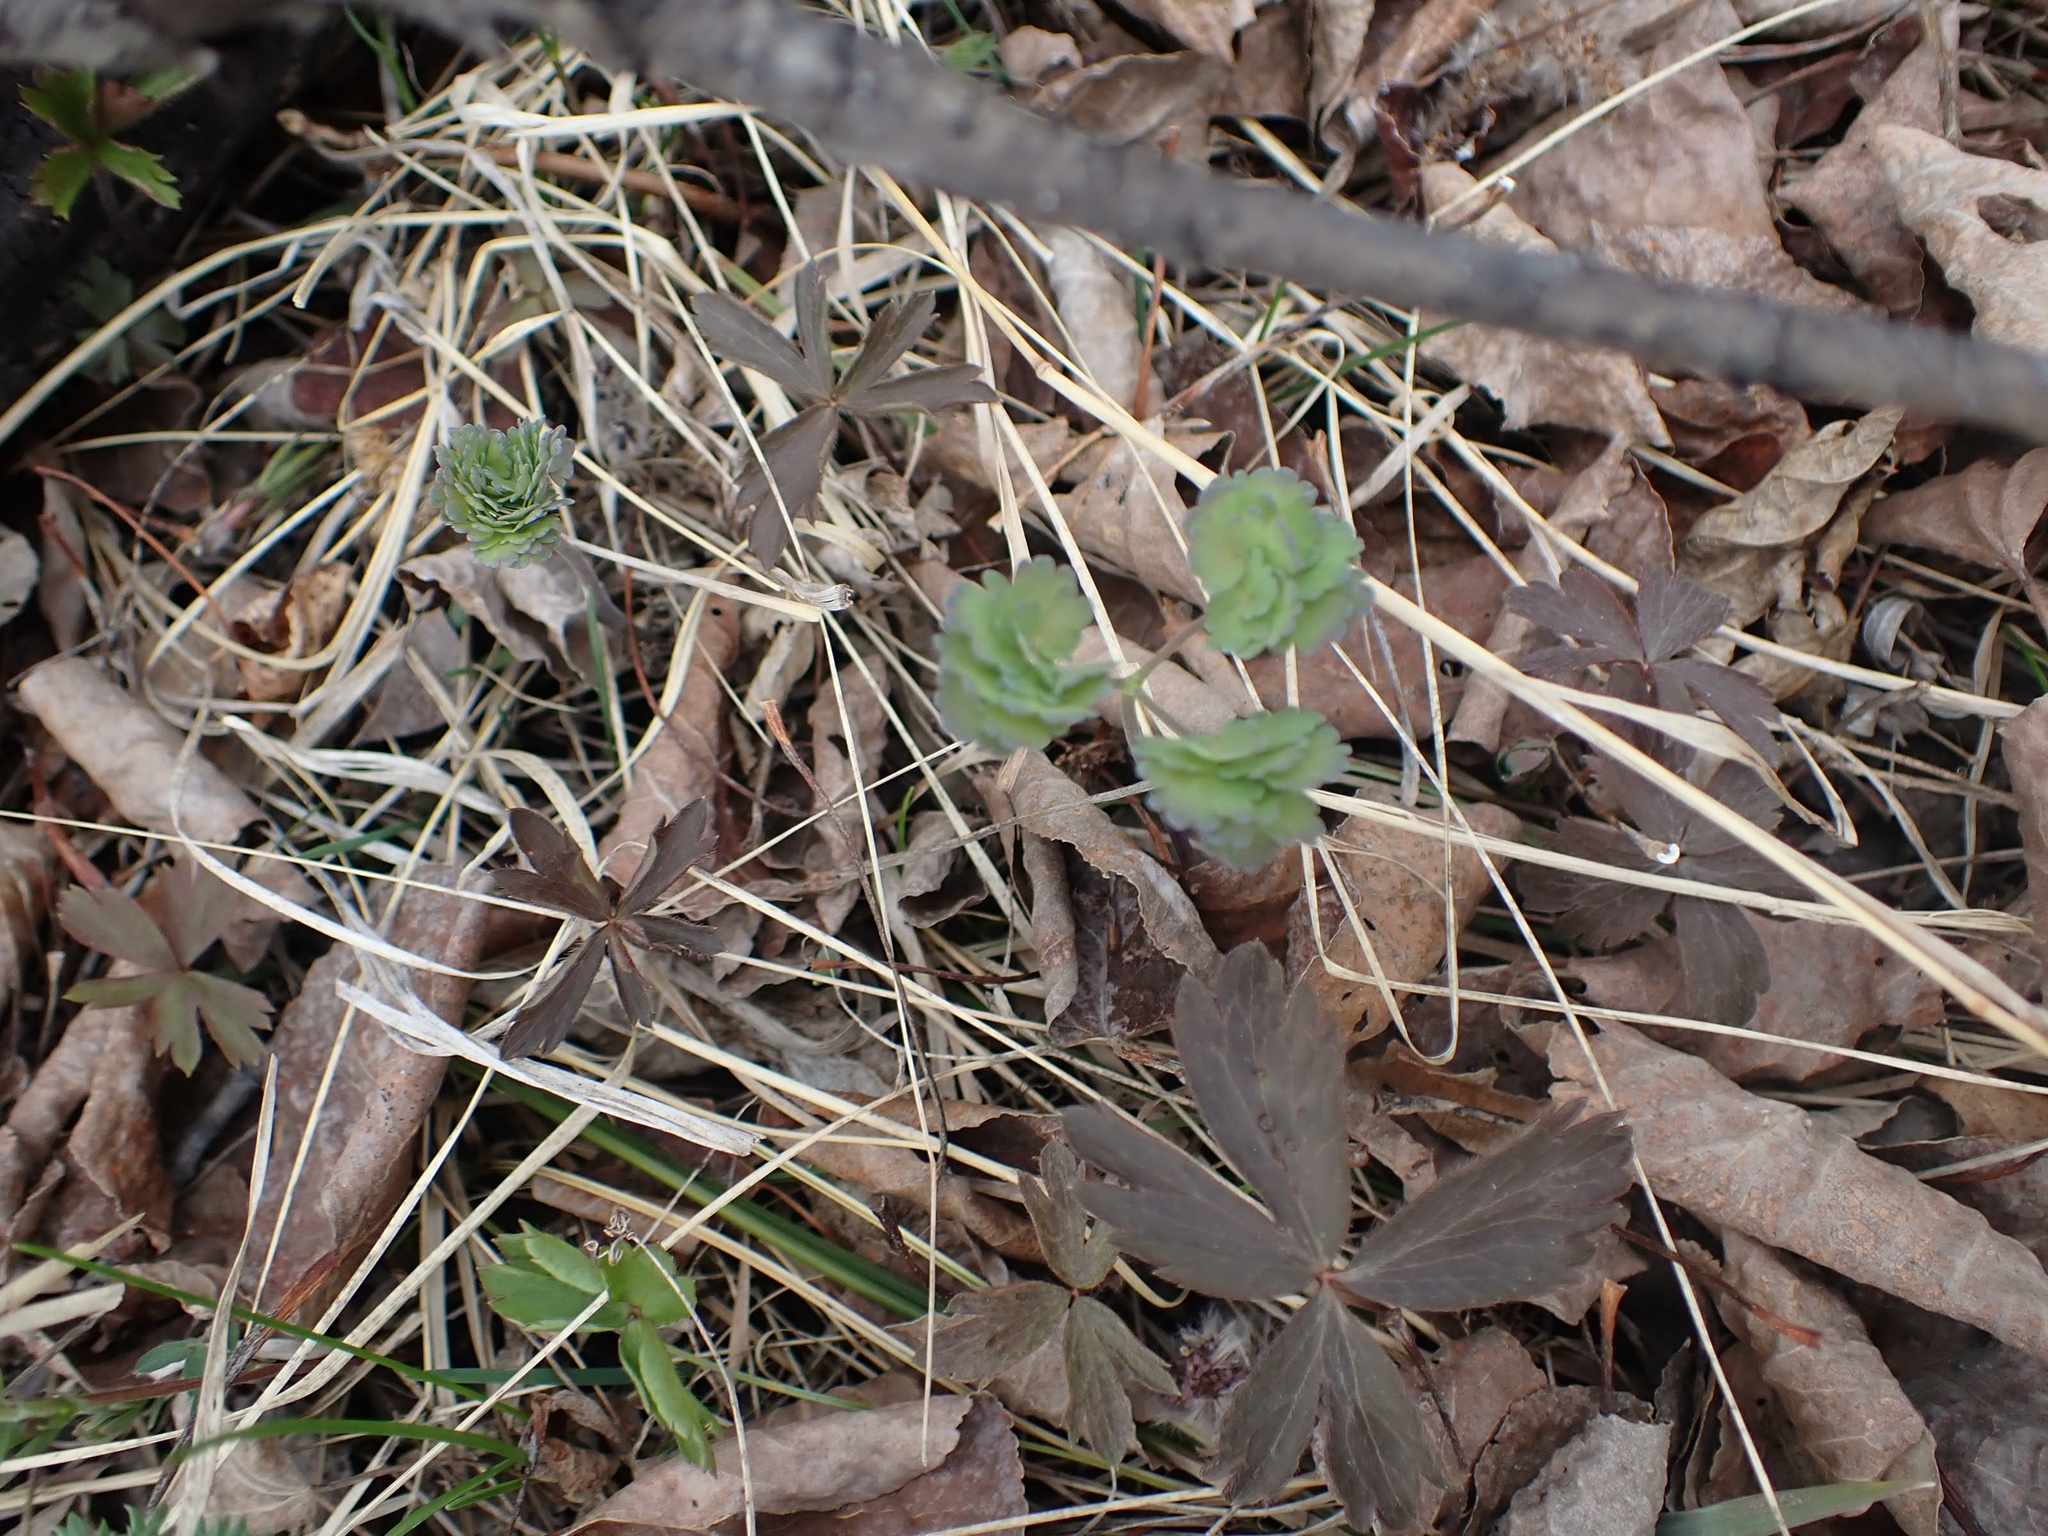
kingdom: Plantae
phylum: Tracheophyta
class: Magnoliopsida
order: Ranunculales
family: Ranunculaceae
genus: Thalictrum
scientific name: Thalictrum venulosum
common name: Early meadow-rue
